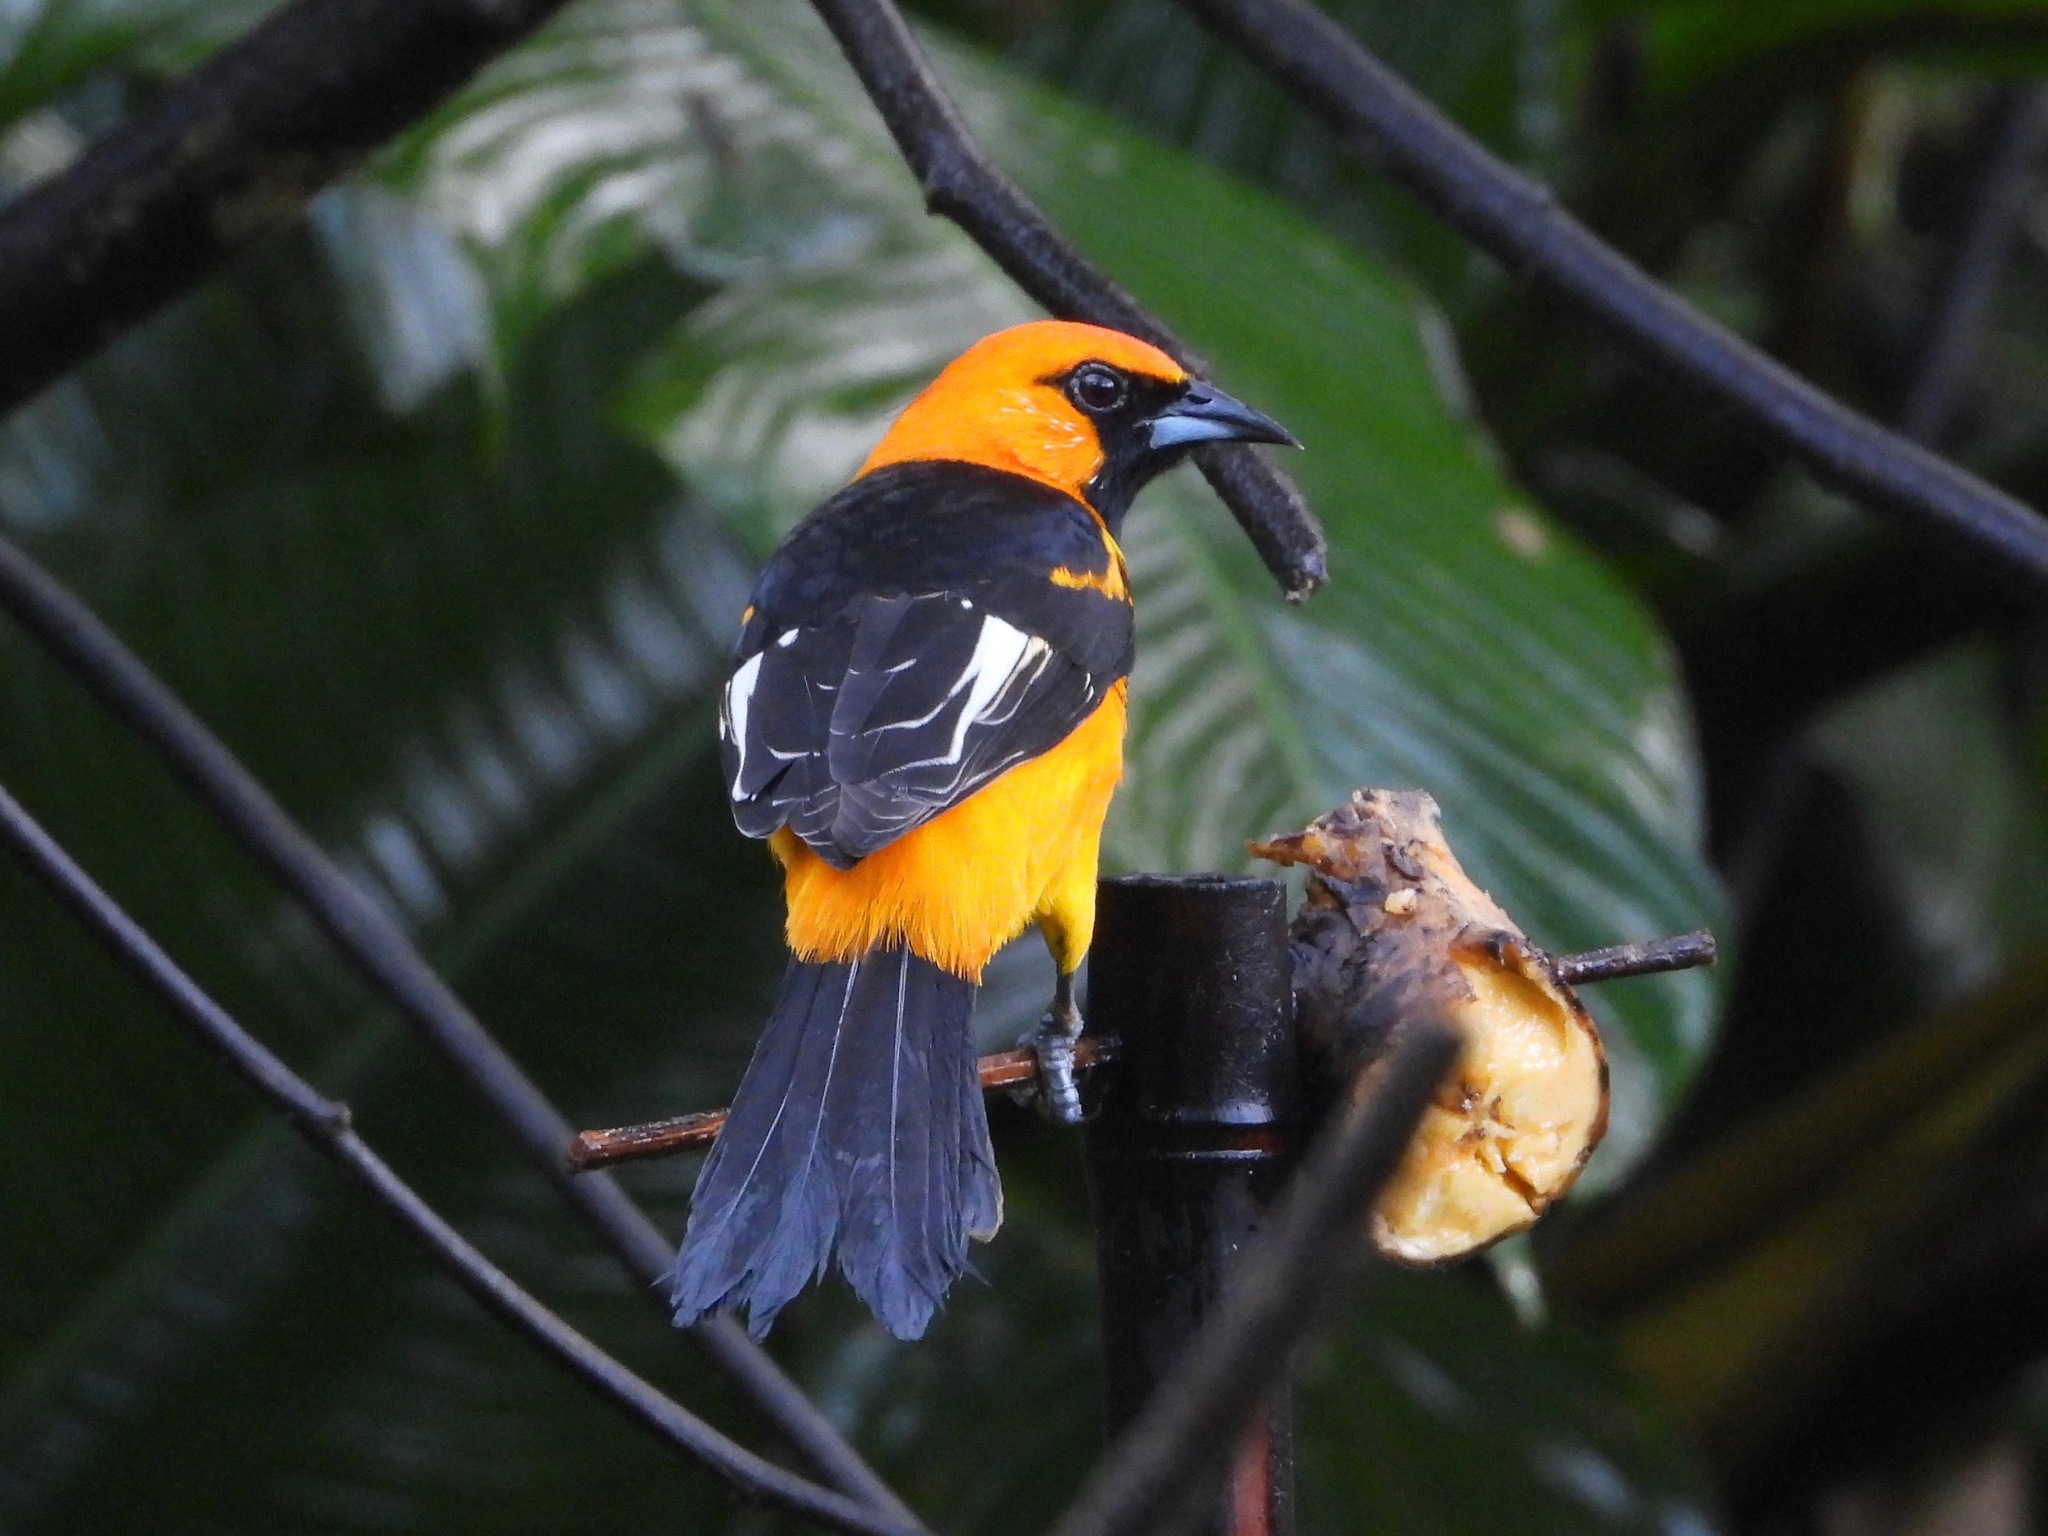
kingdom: Animalia
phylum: Chordata
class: Aves
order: Passeriformes
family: Icteridae
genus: Icterus
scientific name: Icterus pectoralis
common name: Spot-breasted oriole
